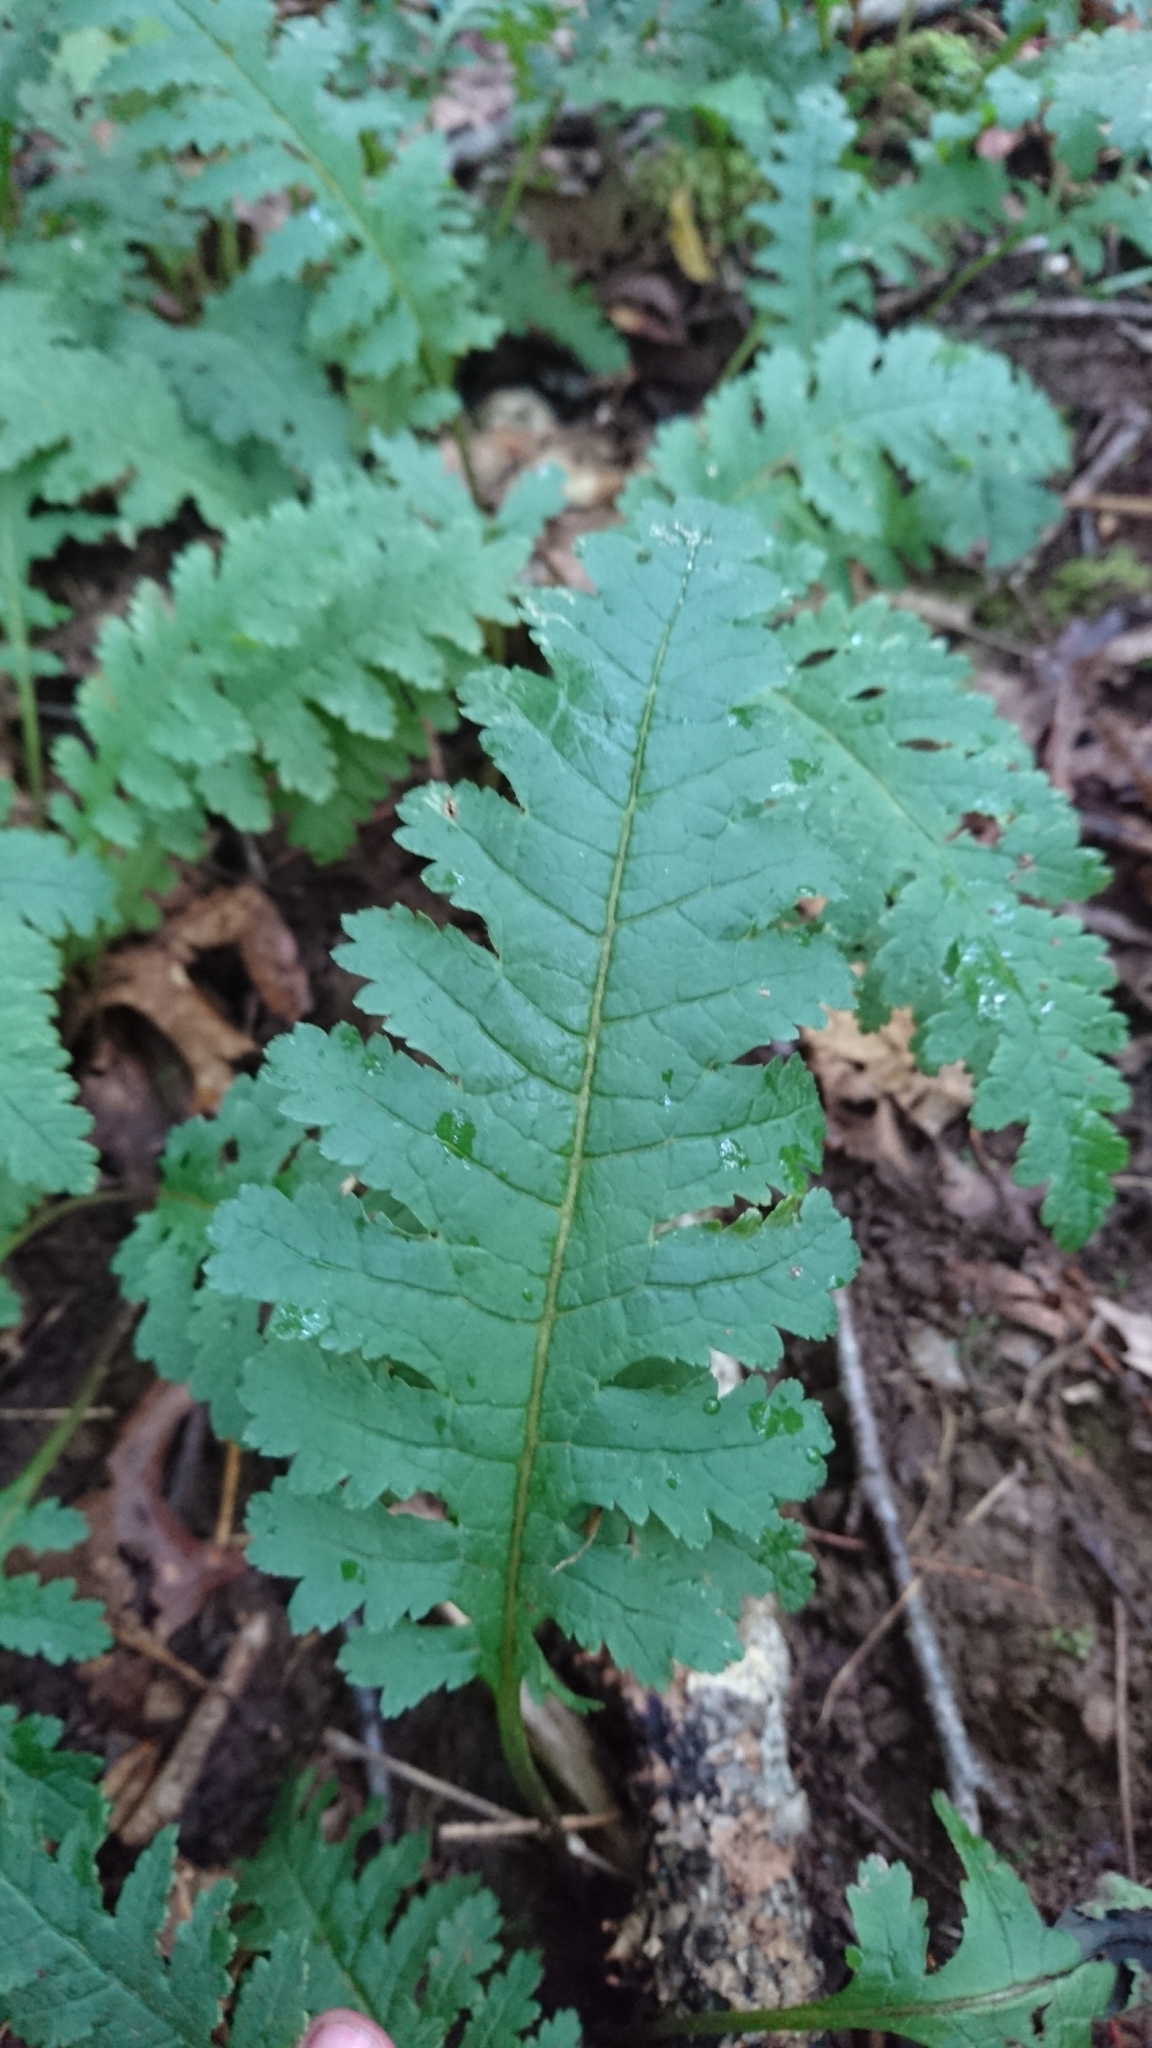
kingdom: Plantae
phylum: Tracheophyta
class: Magnoliopsida
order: Lamiales
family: Orobanchaceae
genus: Pedicularis
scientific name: Pedicularis canadensis
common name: Early lousewort
